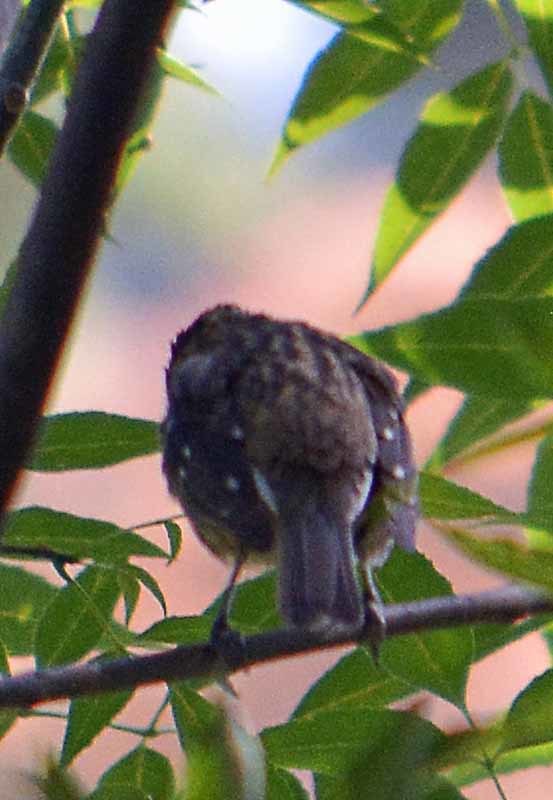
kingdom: Animalia
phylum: Chordata
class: Aves
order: Passeriformes
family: Cardinalidae
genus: Pheucticus
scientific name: Pheucticus melanocephalus
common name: Black-headed grosbeak
